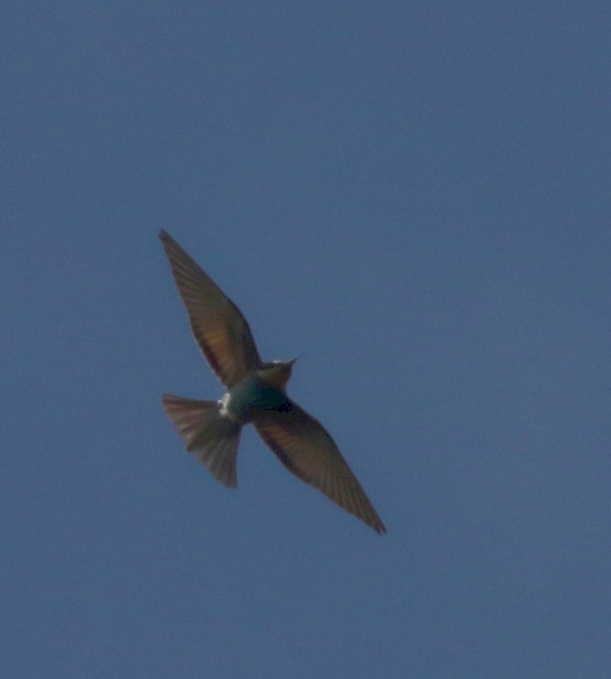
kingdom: Animalia
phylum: Chordata
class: Aves
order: Coraciiformes
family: Meropidae
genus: Merops
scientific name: Merops apiaster
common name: European bee-eater
